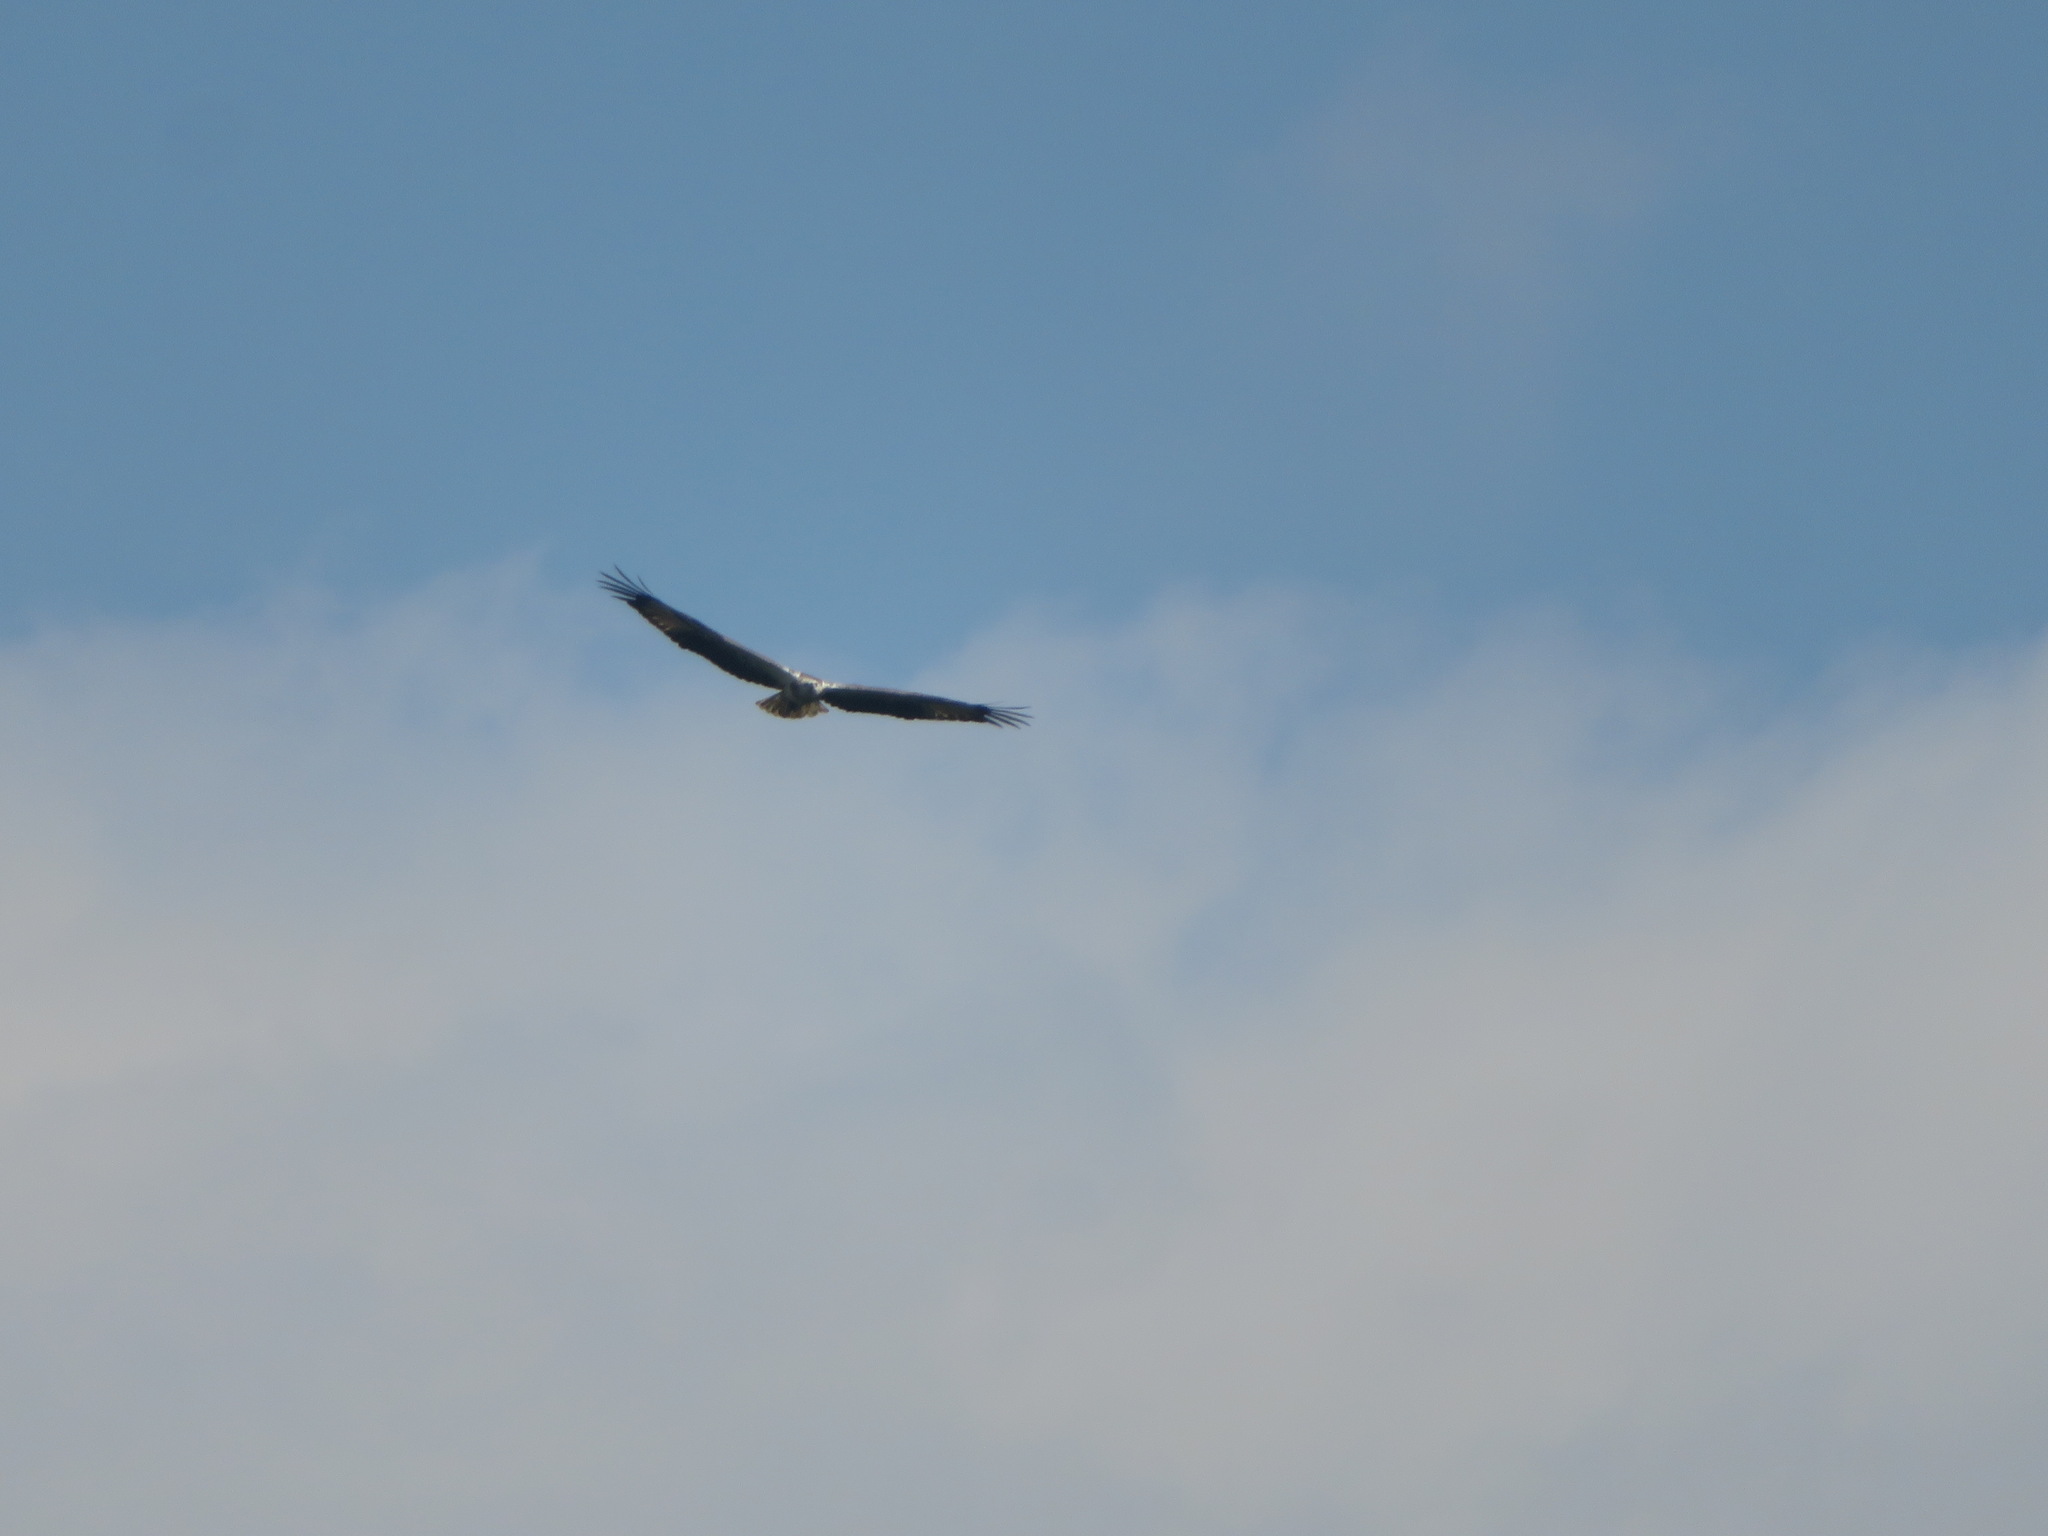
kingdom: Animalia
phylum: Chordata
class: Aves
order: Accipitriformes
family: Accipitridae
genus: Haliaeetus
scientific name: Haliaeetus leucogaster
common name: White-bellied sea eagle
